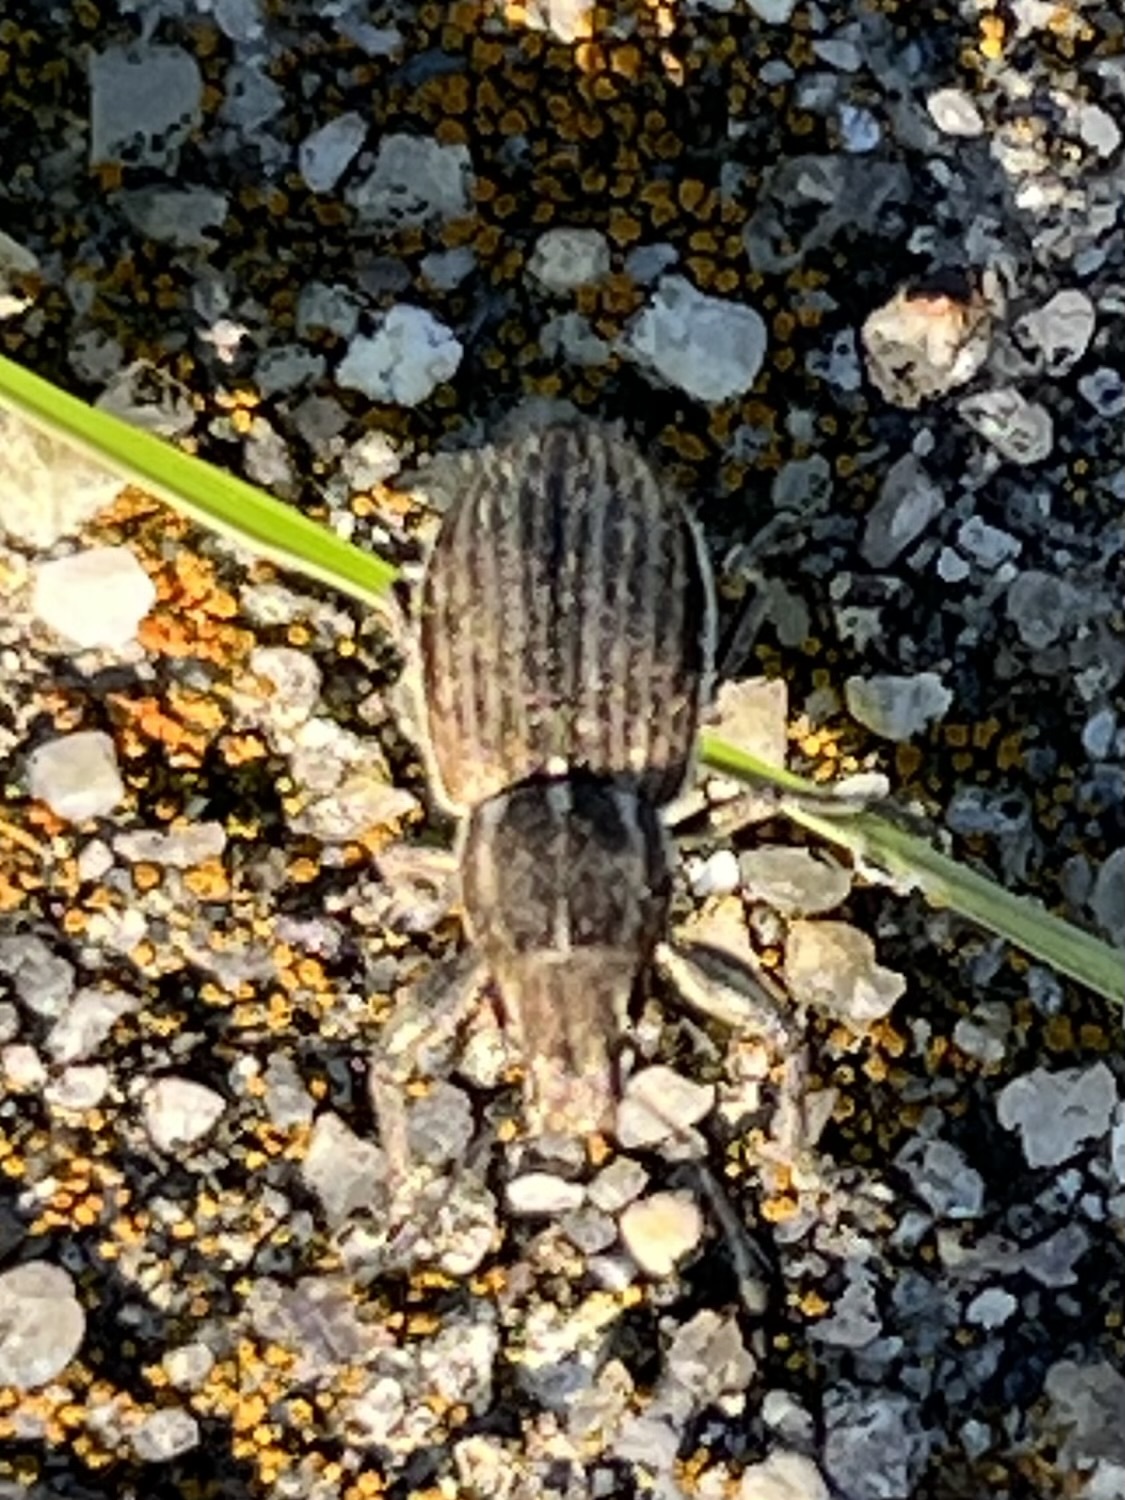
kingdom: Animalia
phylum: Arthropoda
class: Insecta
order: Coleoptera
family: Curculionidae
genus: Naupactus
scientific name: Naupactus leucoloma
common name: Whitefringed beetle
